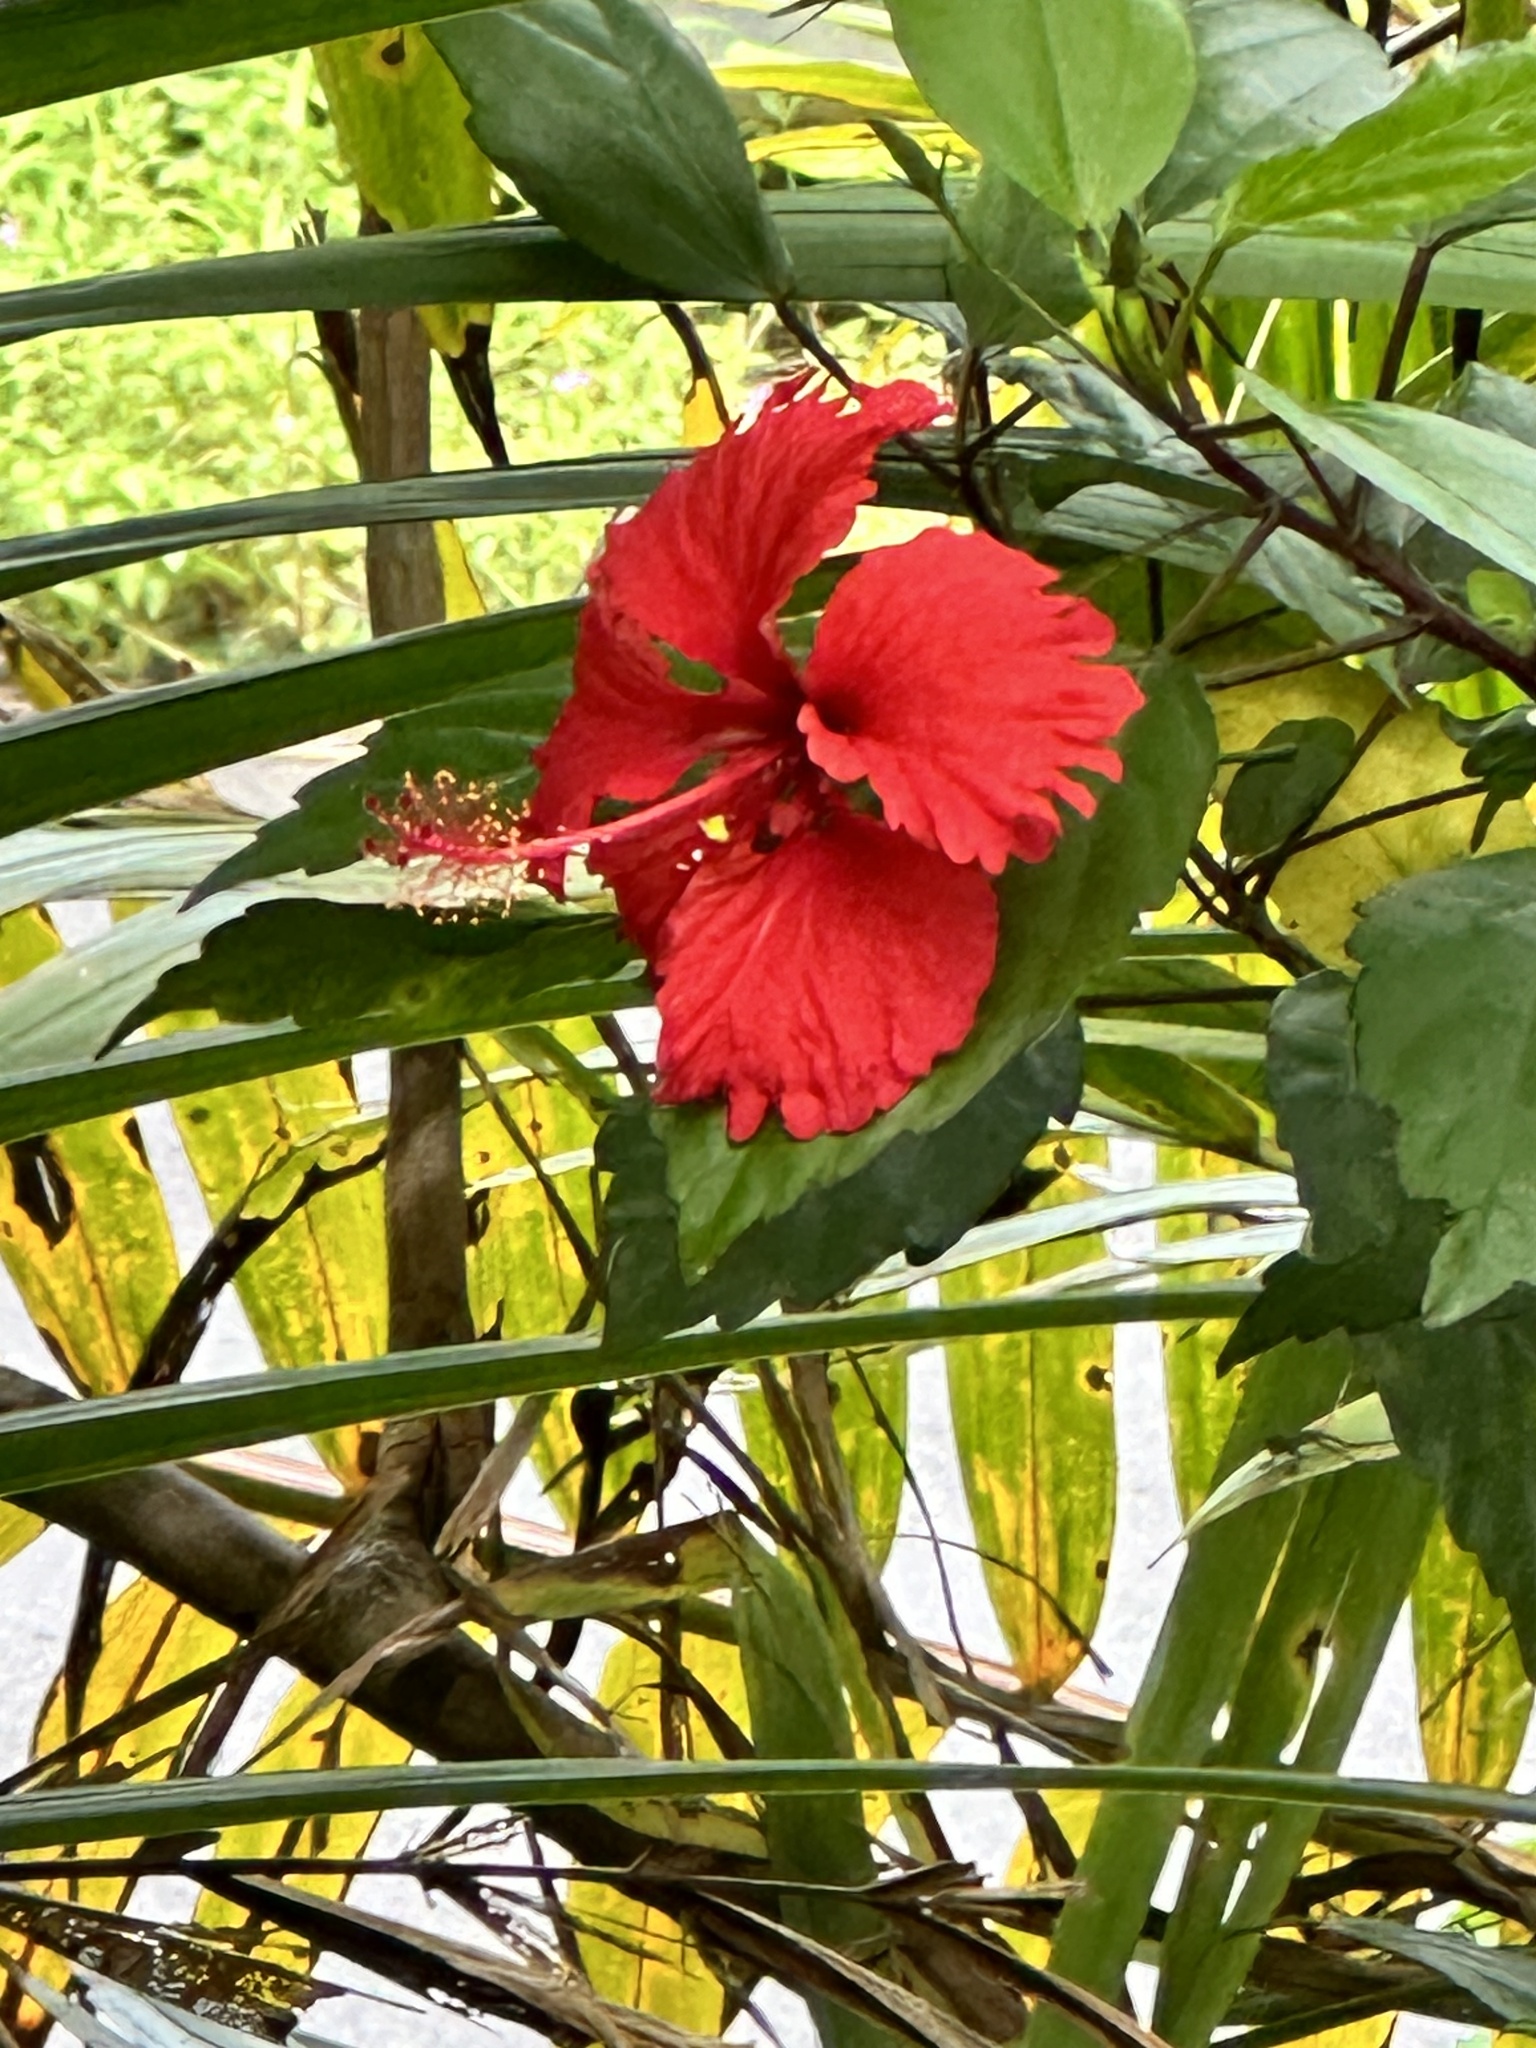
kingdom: Plantae
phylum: Tracheophyta
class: Magnoliopsida
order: Malvales
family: Malvaceae
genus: Hibiscus
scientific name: Hibiscus archeri
